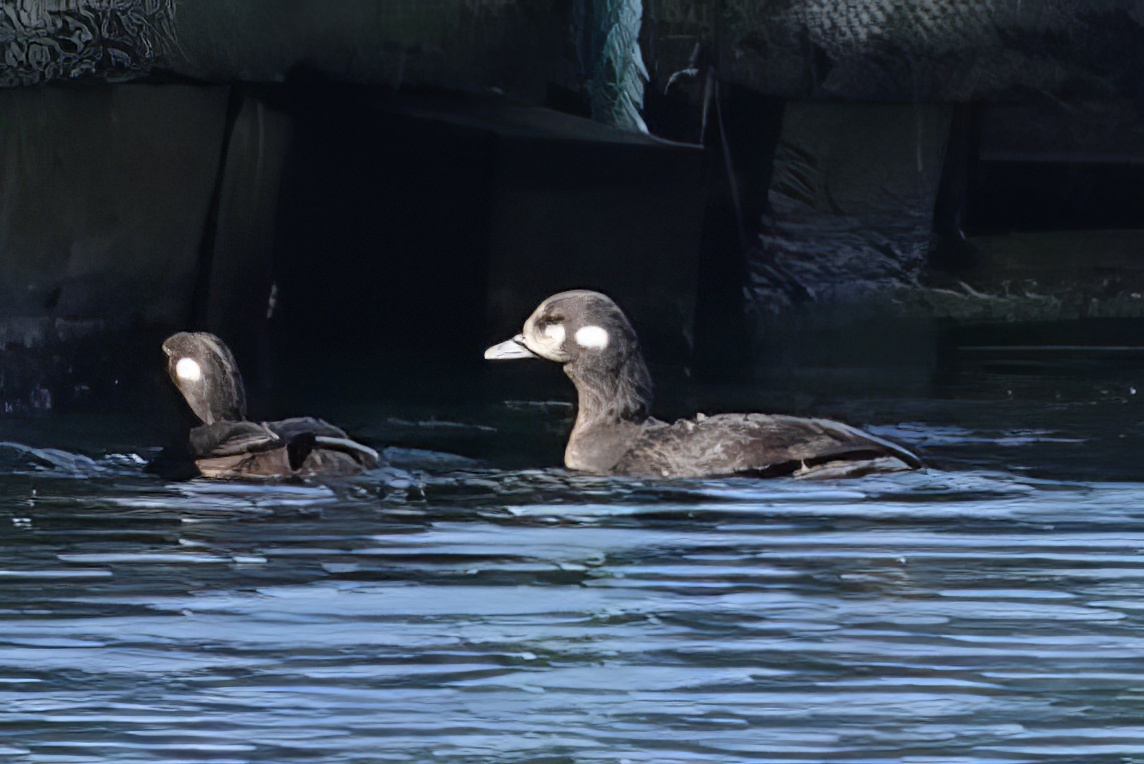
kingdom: Animalia
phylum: Chordata
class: Aves
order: Anseriformes
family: Anatidae
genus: Histrionicus
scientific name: Histrionicus histrionicus
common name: Harlequin duck
